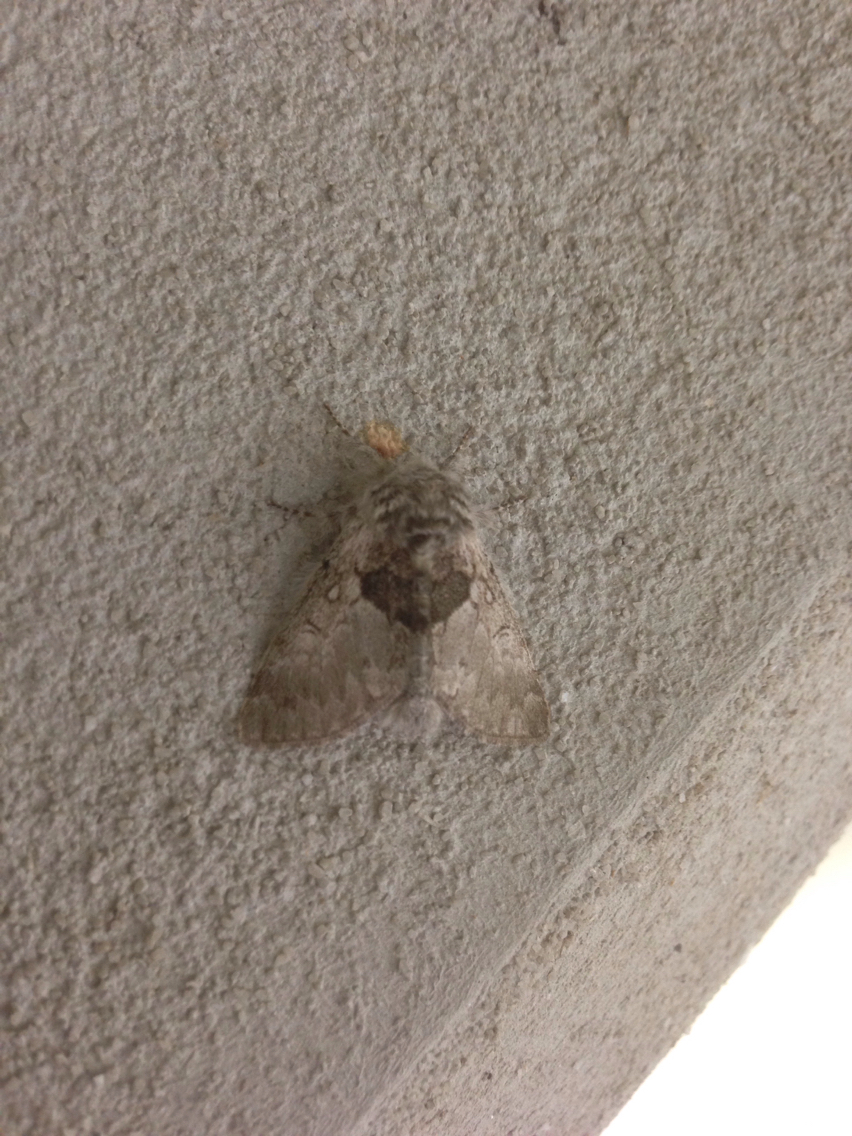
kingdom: Animalia
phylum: Arthropoda
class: Insecta
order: Lepidoptera
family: Noctuidae
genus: Colocasia
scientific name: Colocasia flavicornis
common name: Saddled yellowhorn
